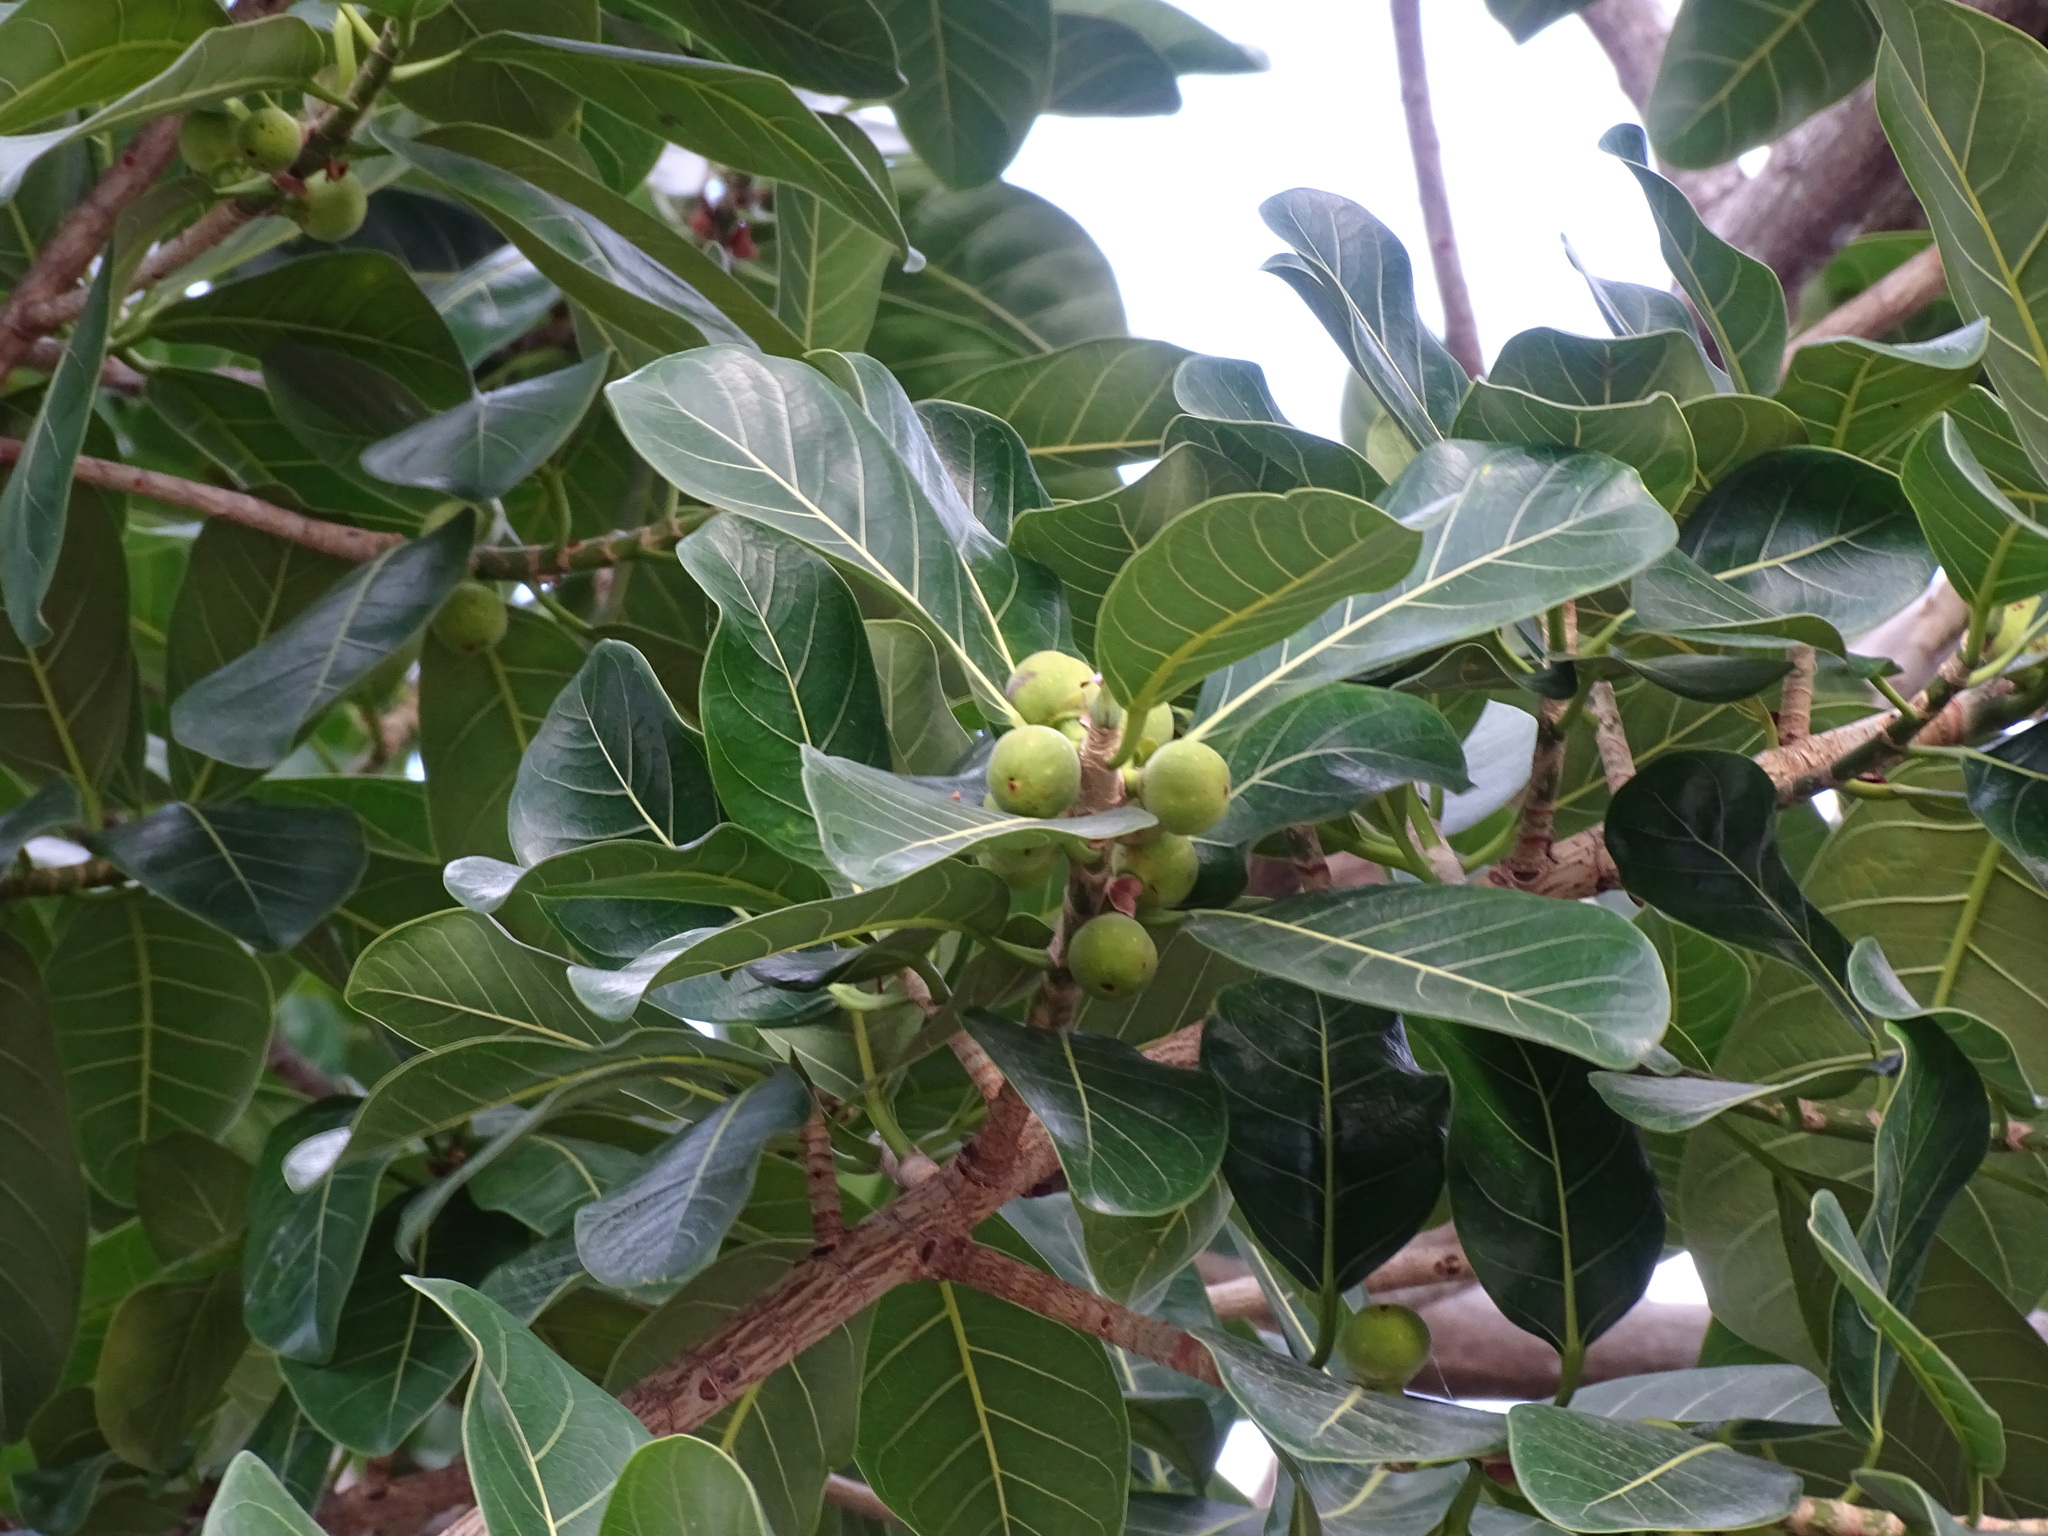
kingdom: Plantae
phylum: Tracheophyta
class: Magnoliopsida
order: Rosales
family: Moraceae
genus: Ficus
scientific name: Ficus obtusifolia
